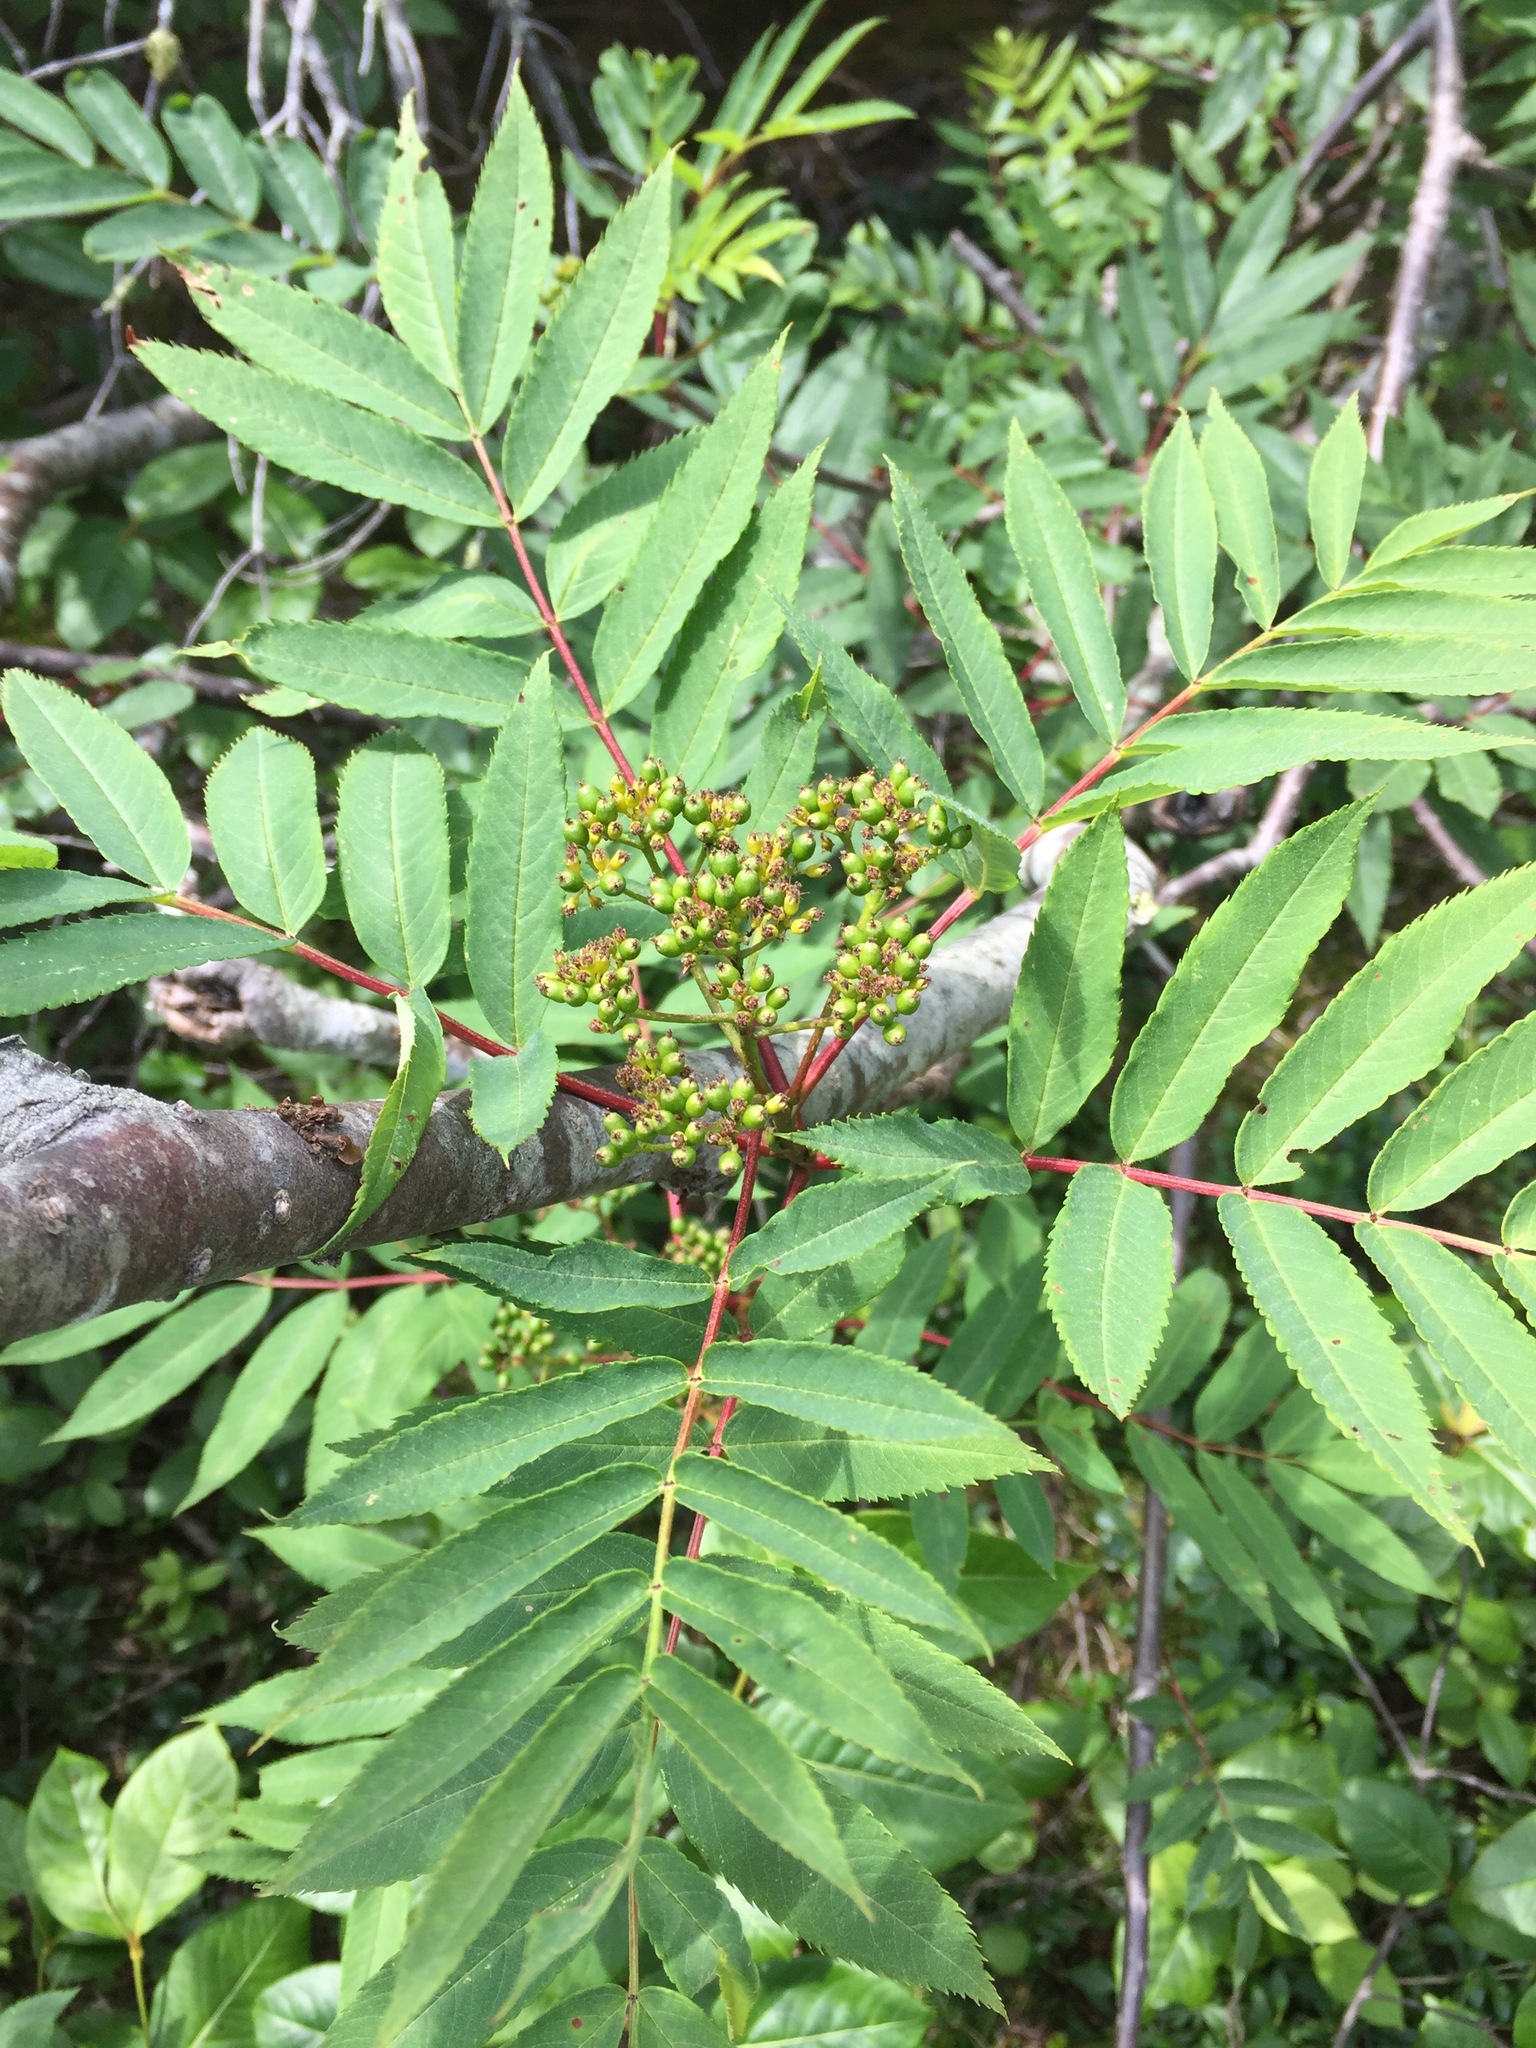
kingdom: Plantae
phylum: Tracheophyta
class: Magnoliopsida
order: Rosales
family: Rosaceae
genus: Sorbus
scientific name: Sorbus americana
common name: American mountain-ash
